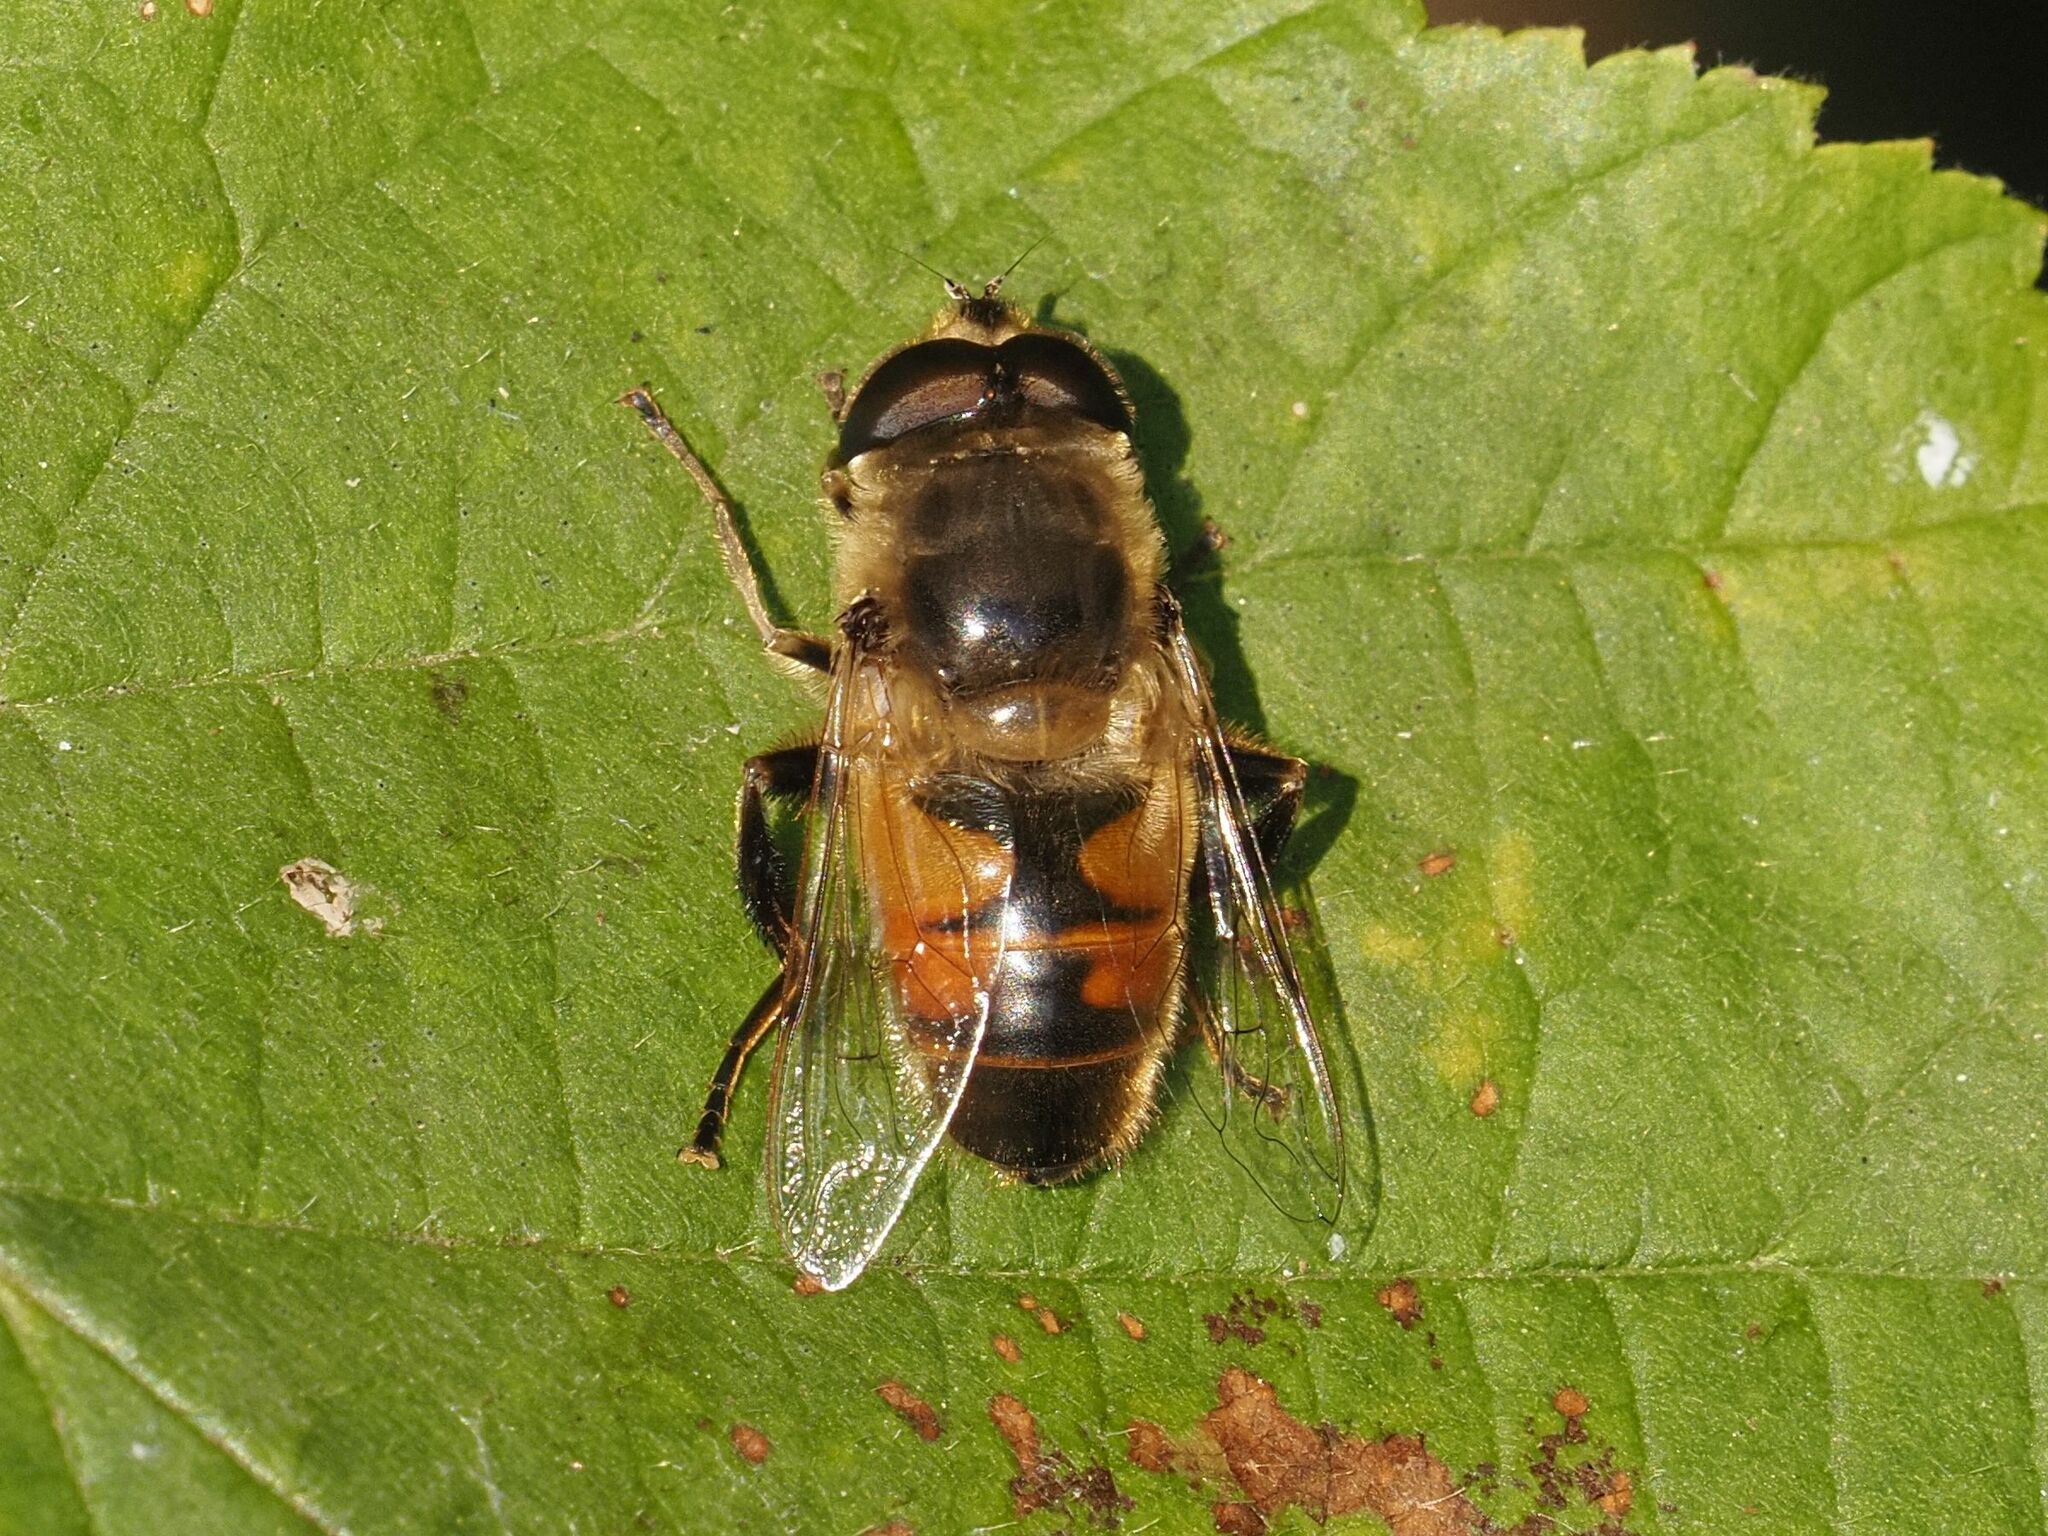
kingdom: Animalia
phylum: Arthropoda
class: Insecta
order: Diptera
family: Syrphidae
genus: Eristalis
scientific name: Eristalis tenax
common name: Drone fly
